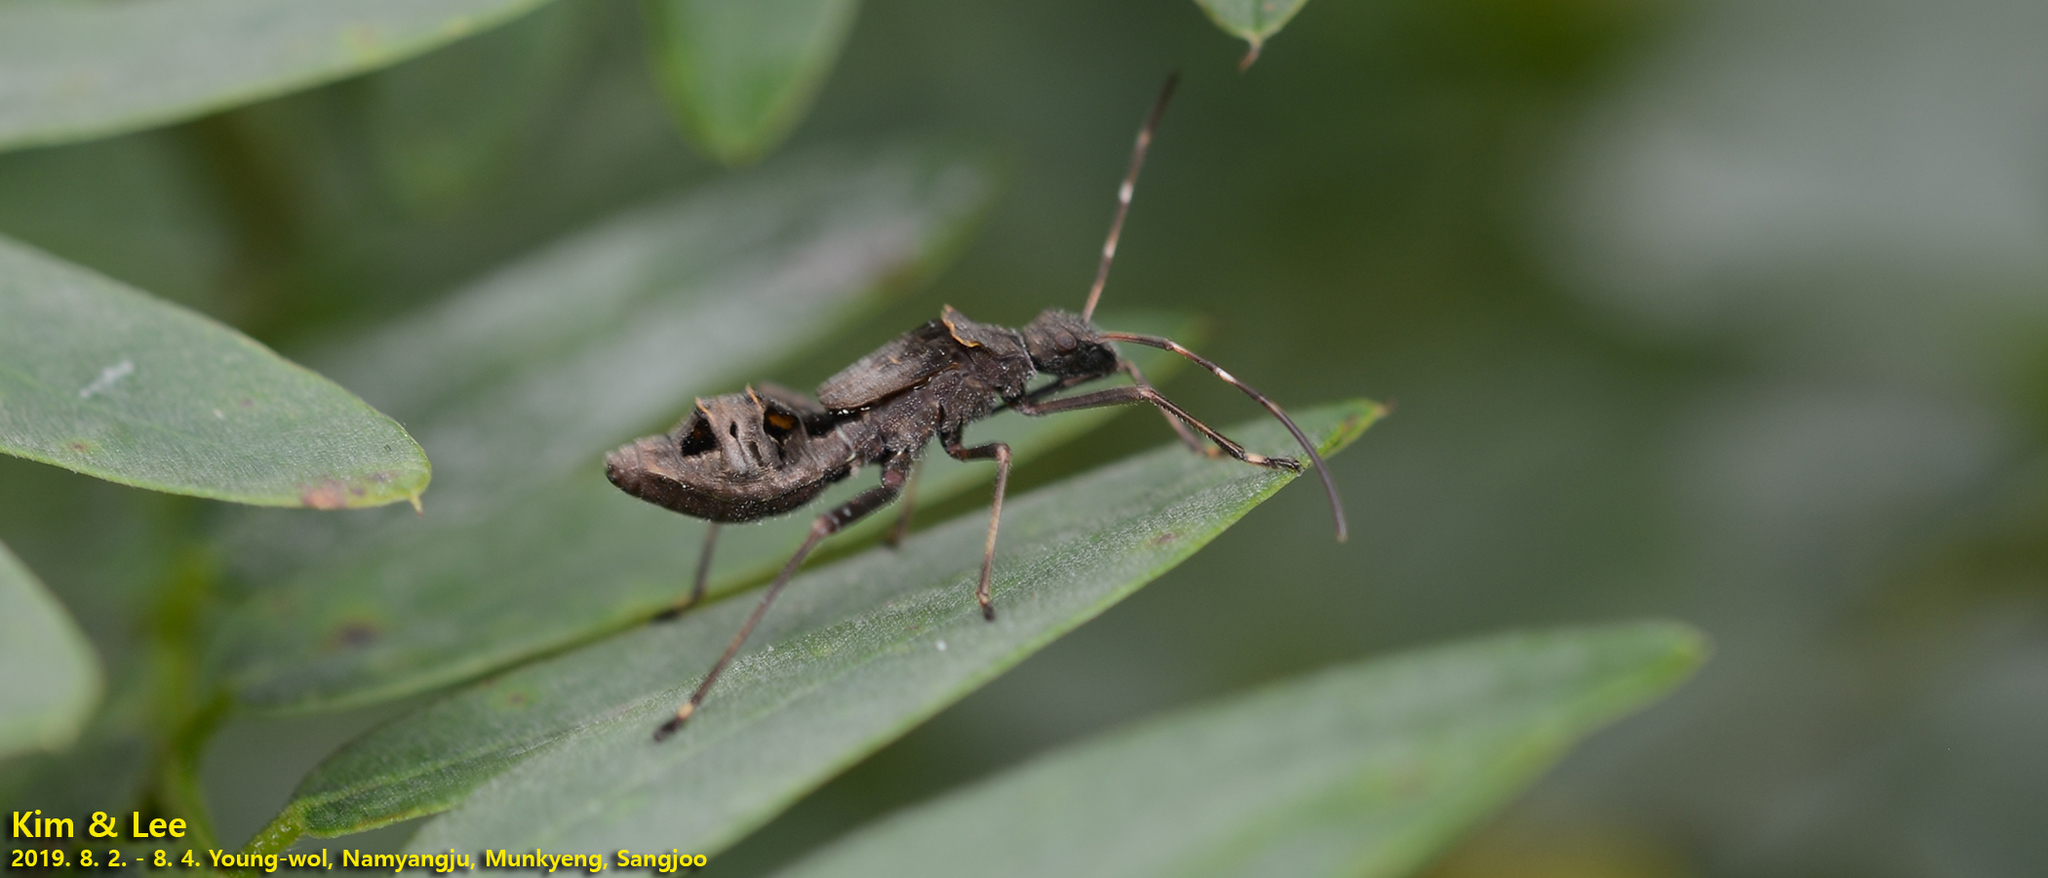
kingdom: Animalia
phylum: Arthropoda
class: Insecta
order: Hemiptera
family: Alydidae
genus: Riptortus
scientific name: Riptortus pedestris
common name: Bean bug
